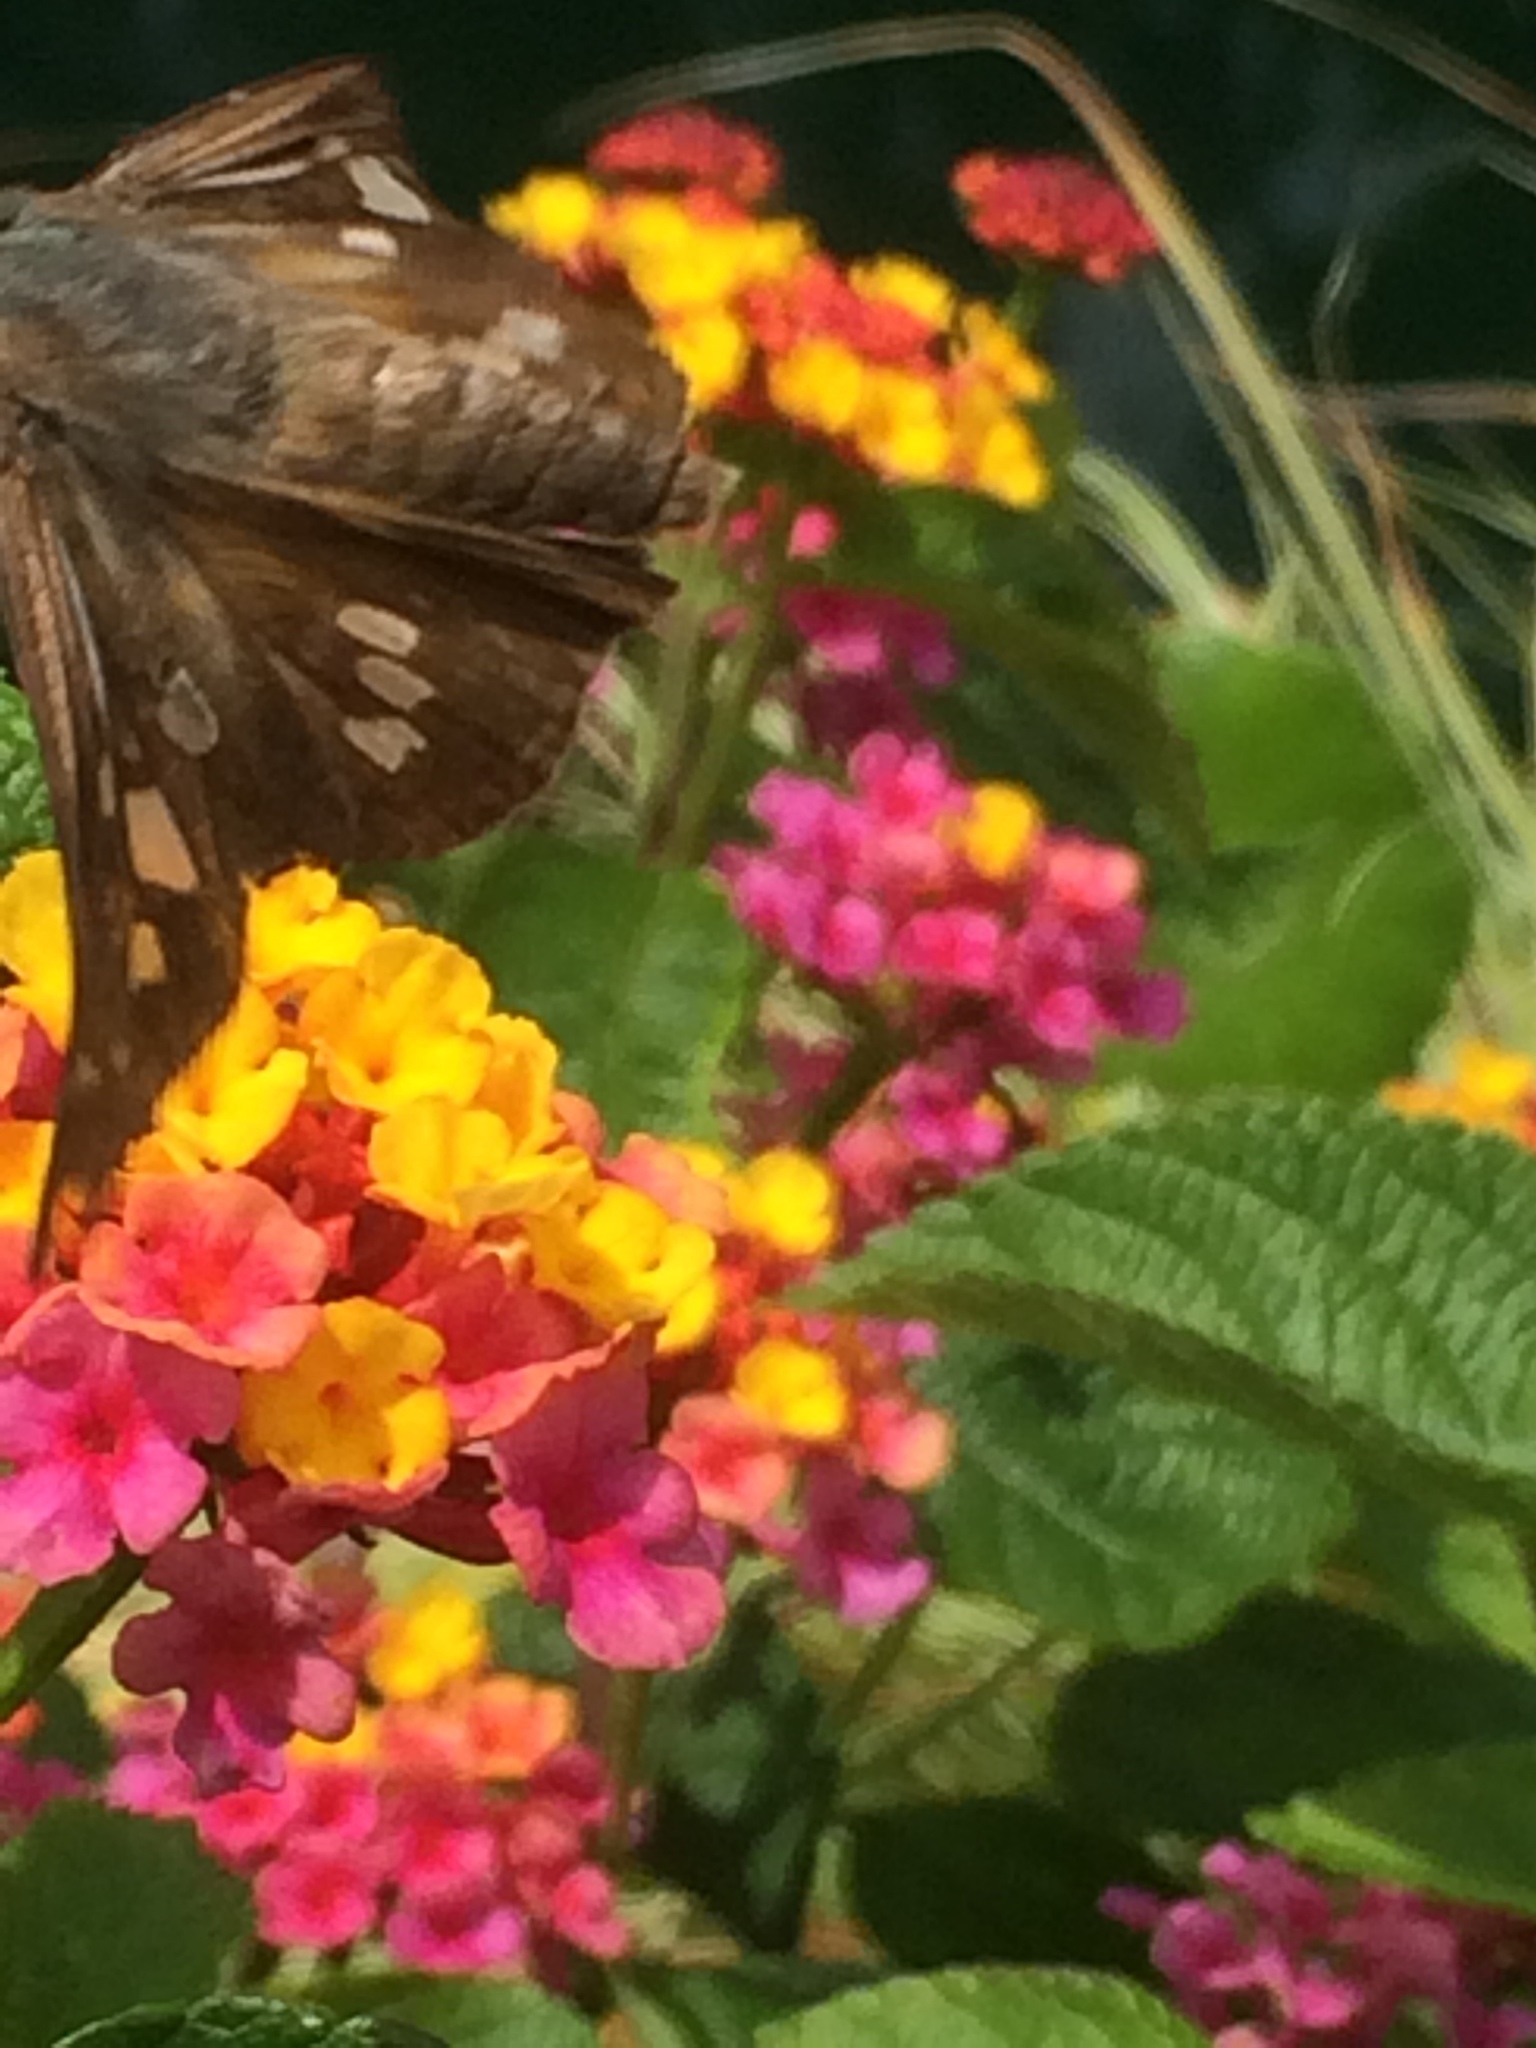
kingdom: Animalia
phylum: Arthropoda
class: Insecta
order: Lepidoptera
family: Hesperiidae
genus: Calpodes
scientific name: Calpodes ethlius
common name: Brazilian skipper
